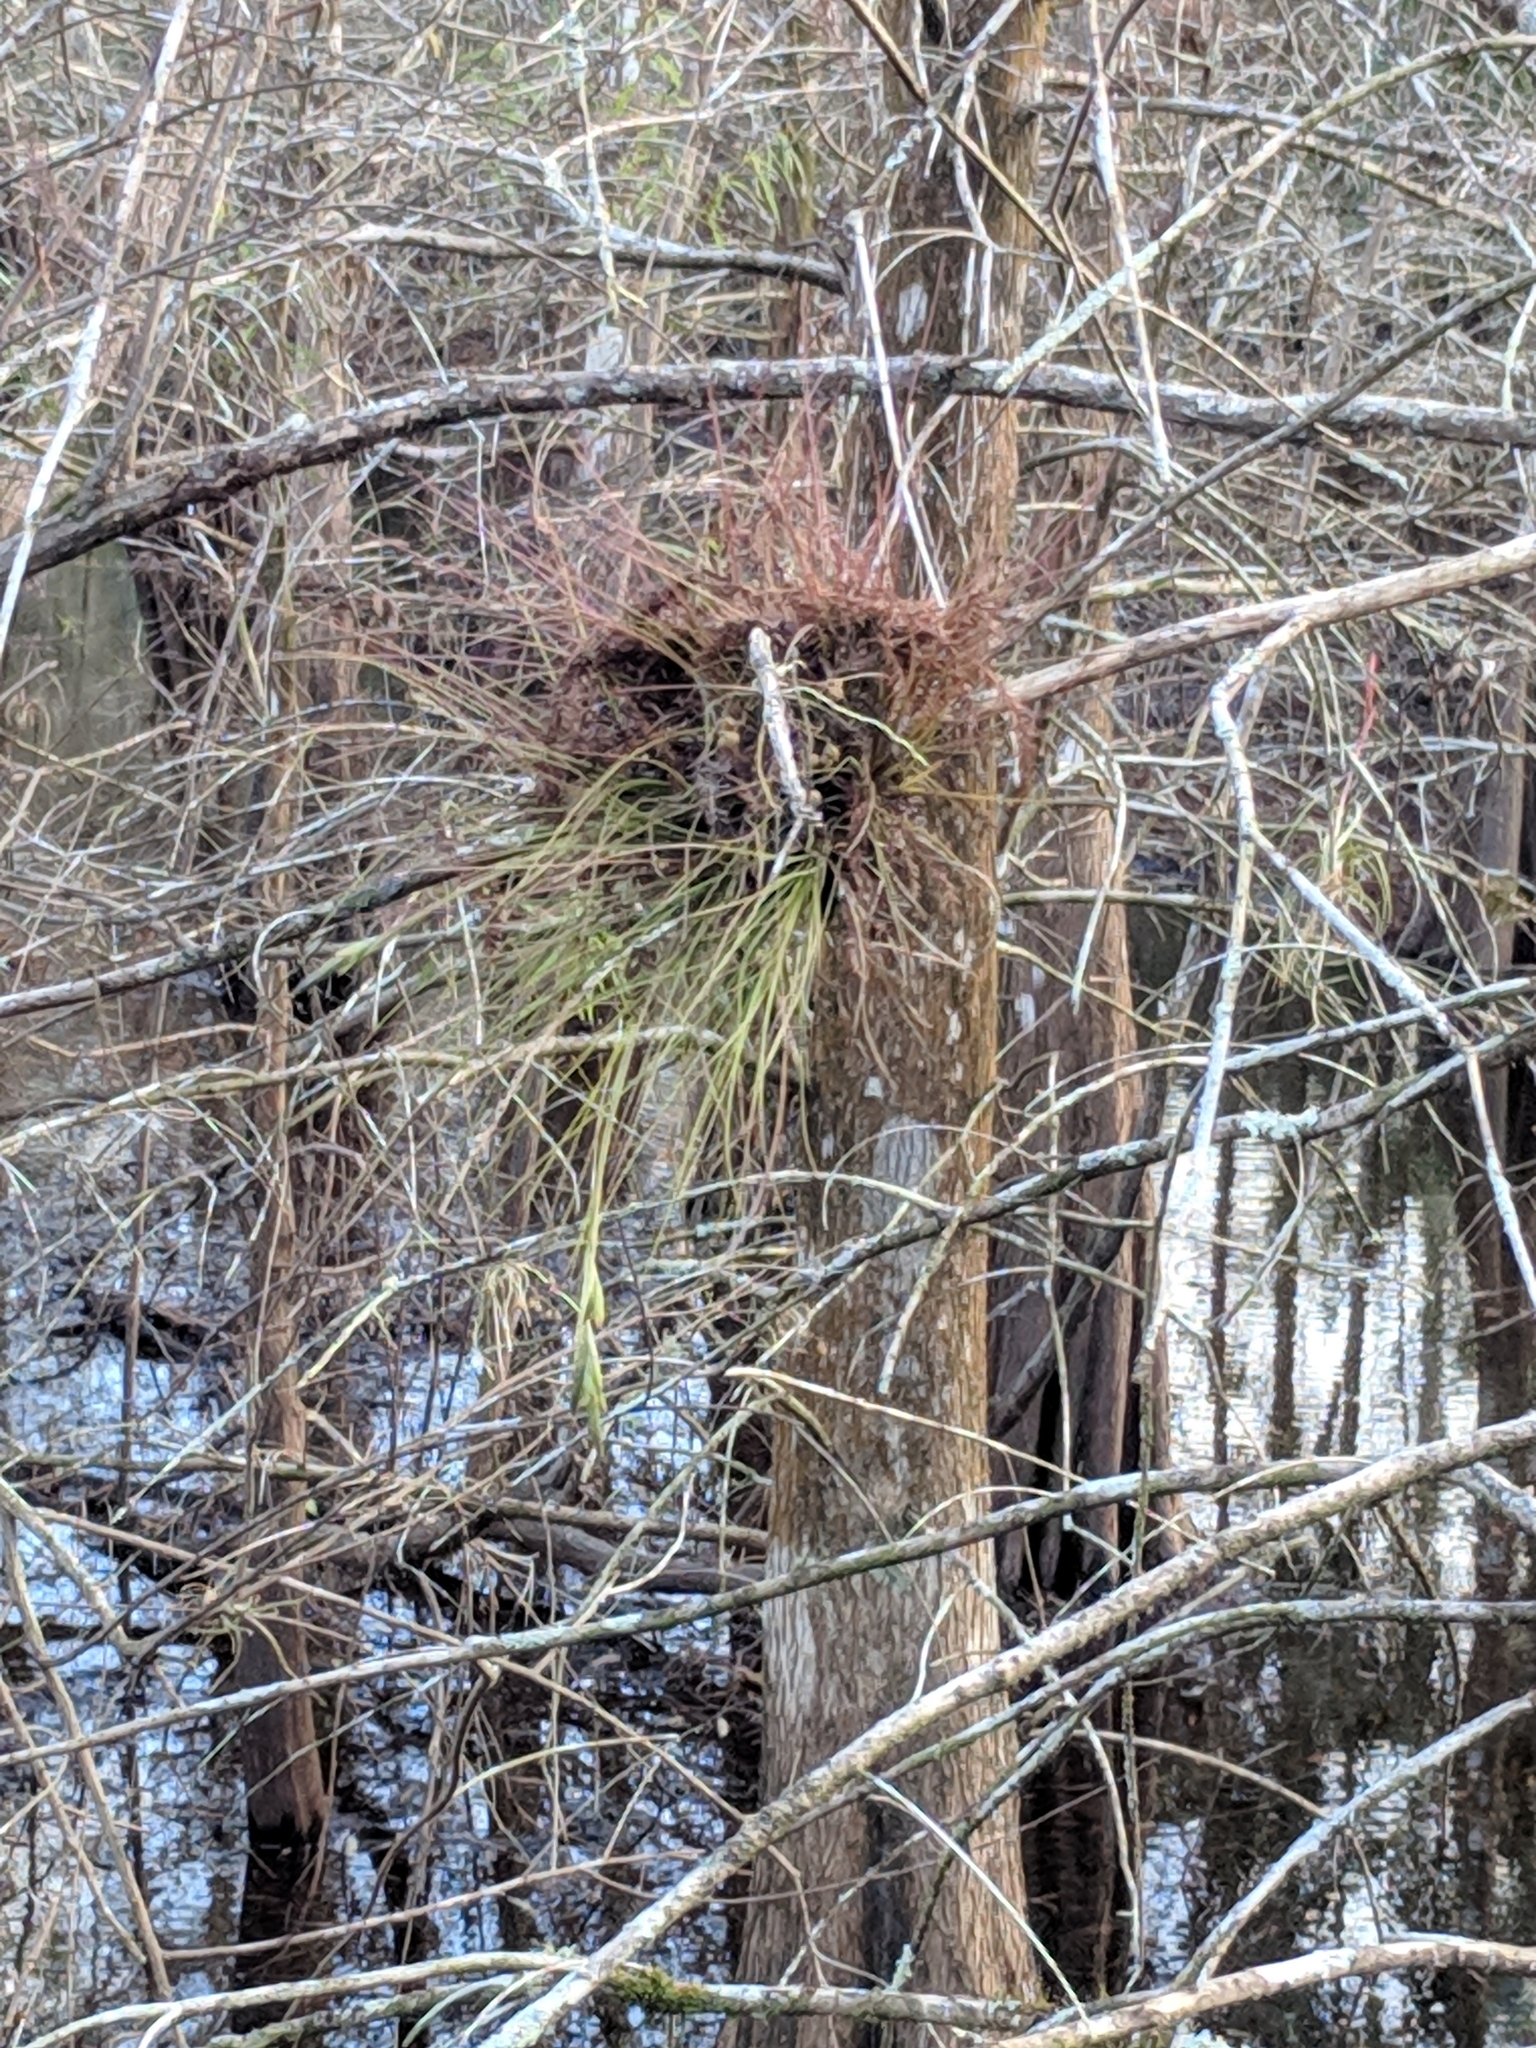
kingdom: Plantae
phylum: Tracheophyta
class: Liliopsida
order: Poales
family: Bromeliaceae
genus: Tillandsia
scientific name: Tillandsia setacea
